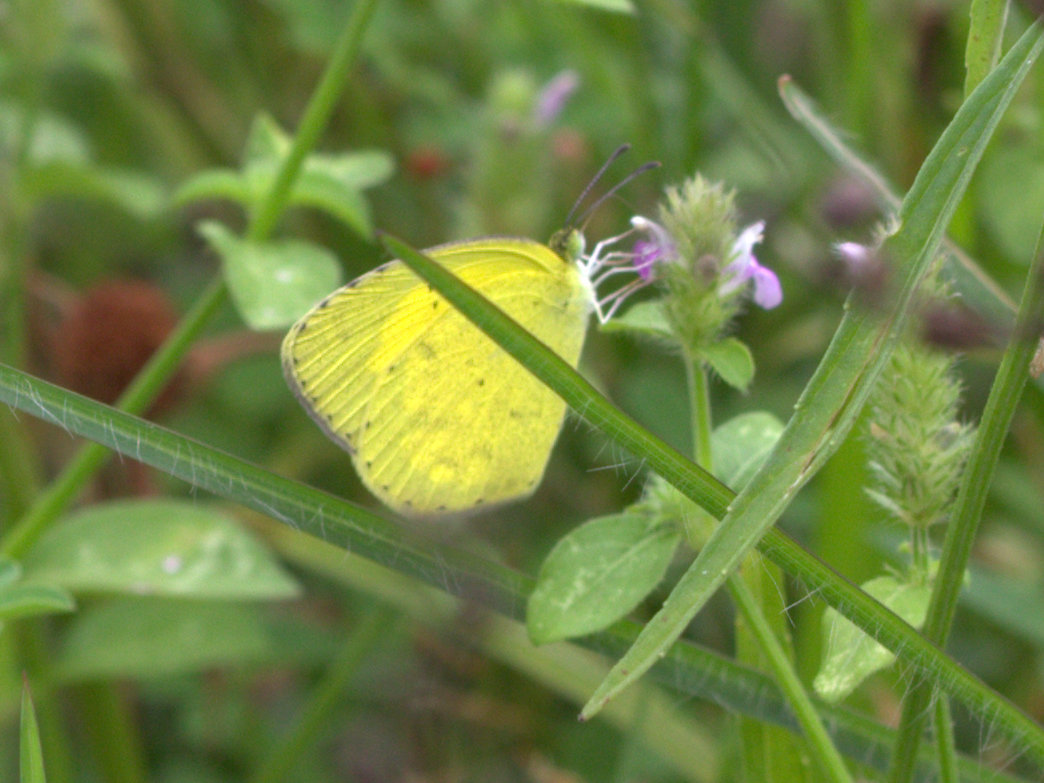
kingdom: Animalia
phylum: Arthropoda
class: Insecta
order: Lepidoptera
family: Pieridae
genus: Eurema
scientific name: Eurema brigitta
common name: Small grass yellow
